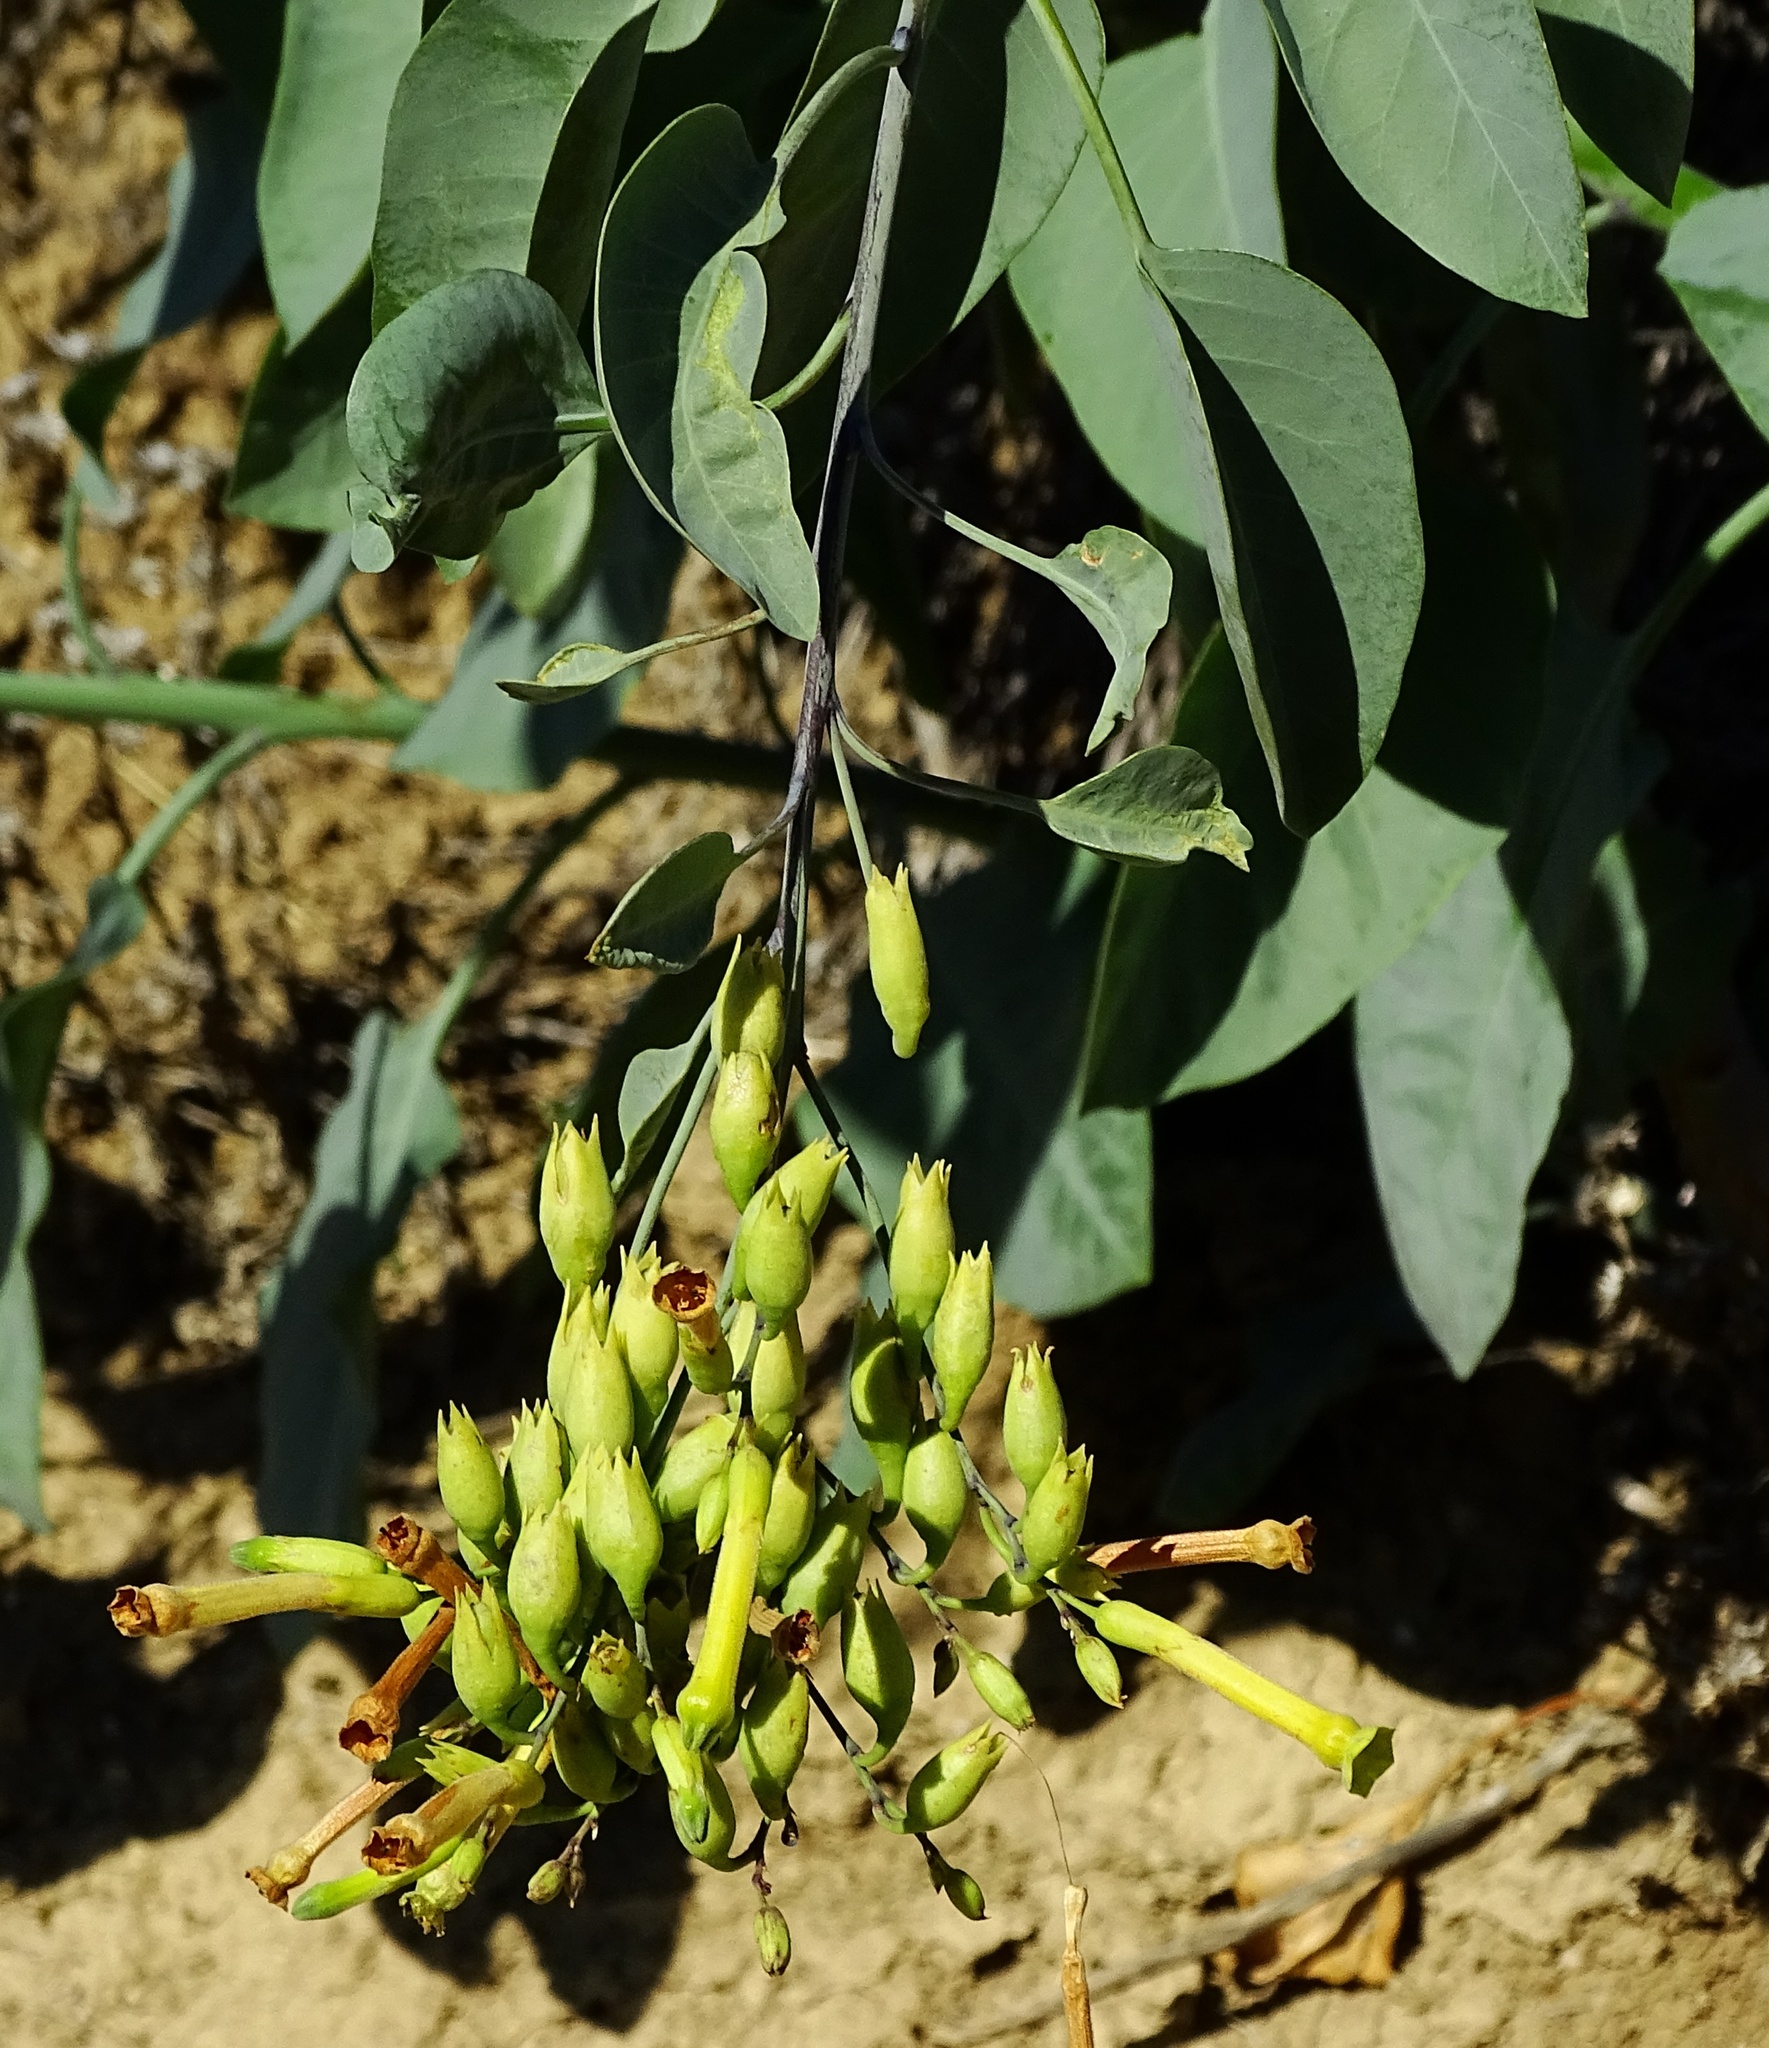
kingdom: Plantae
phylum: Tracheophyta
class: Magnoliopsida
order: Solanales
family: Solanaceae
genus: Nicotiana
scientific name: Nicotiana glauca
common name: Tree tobacco
